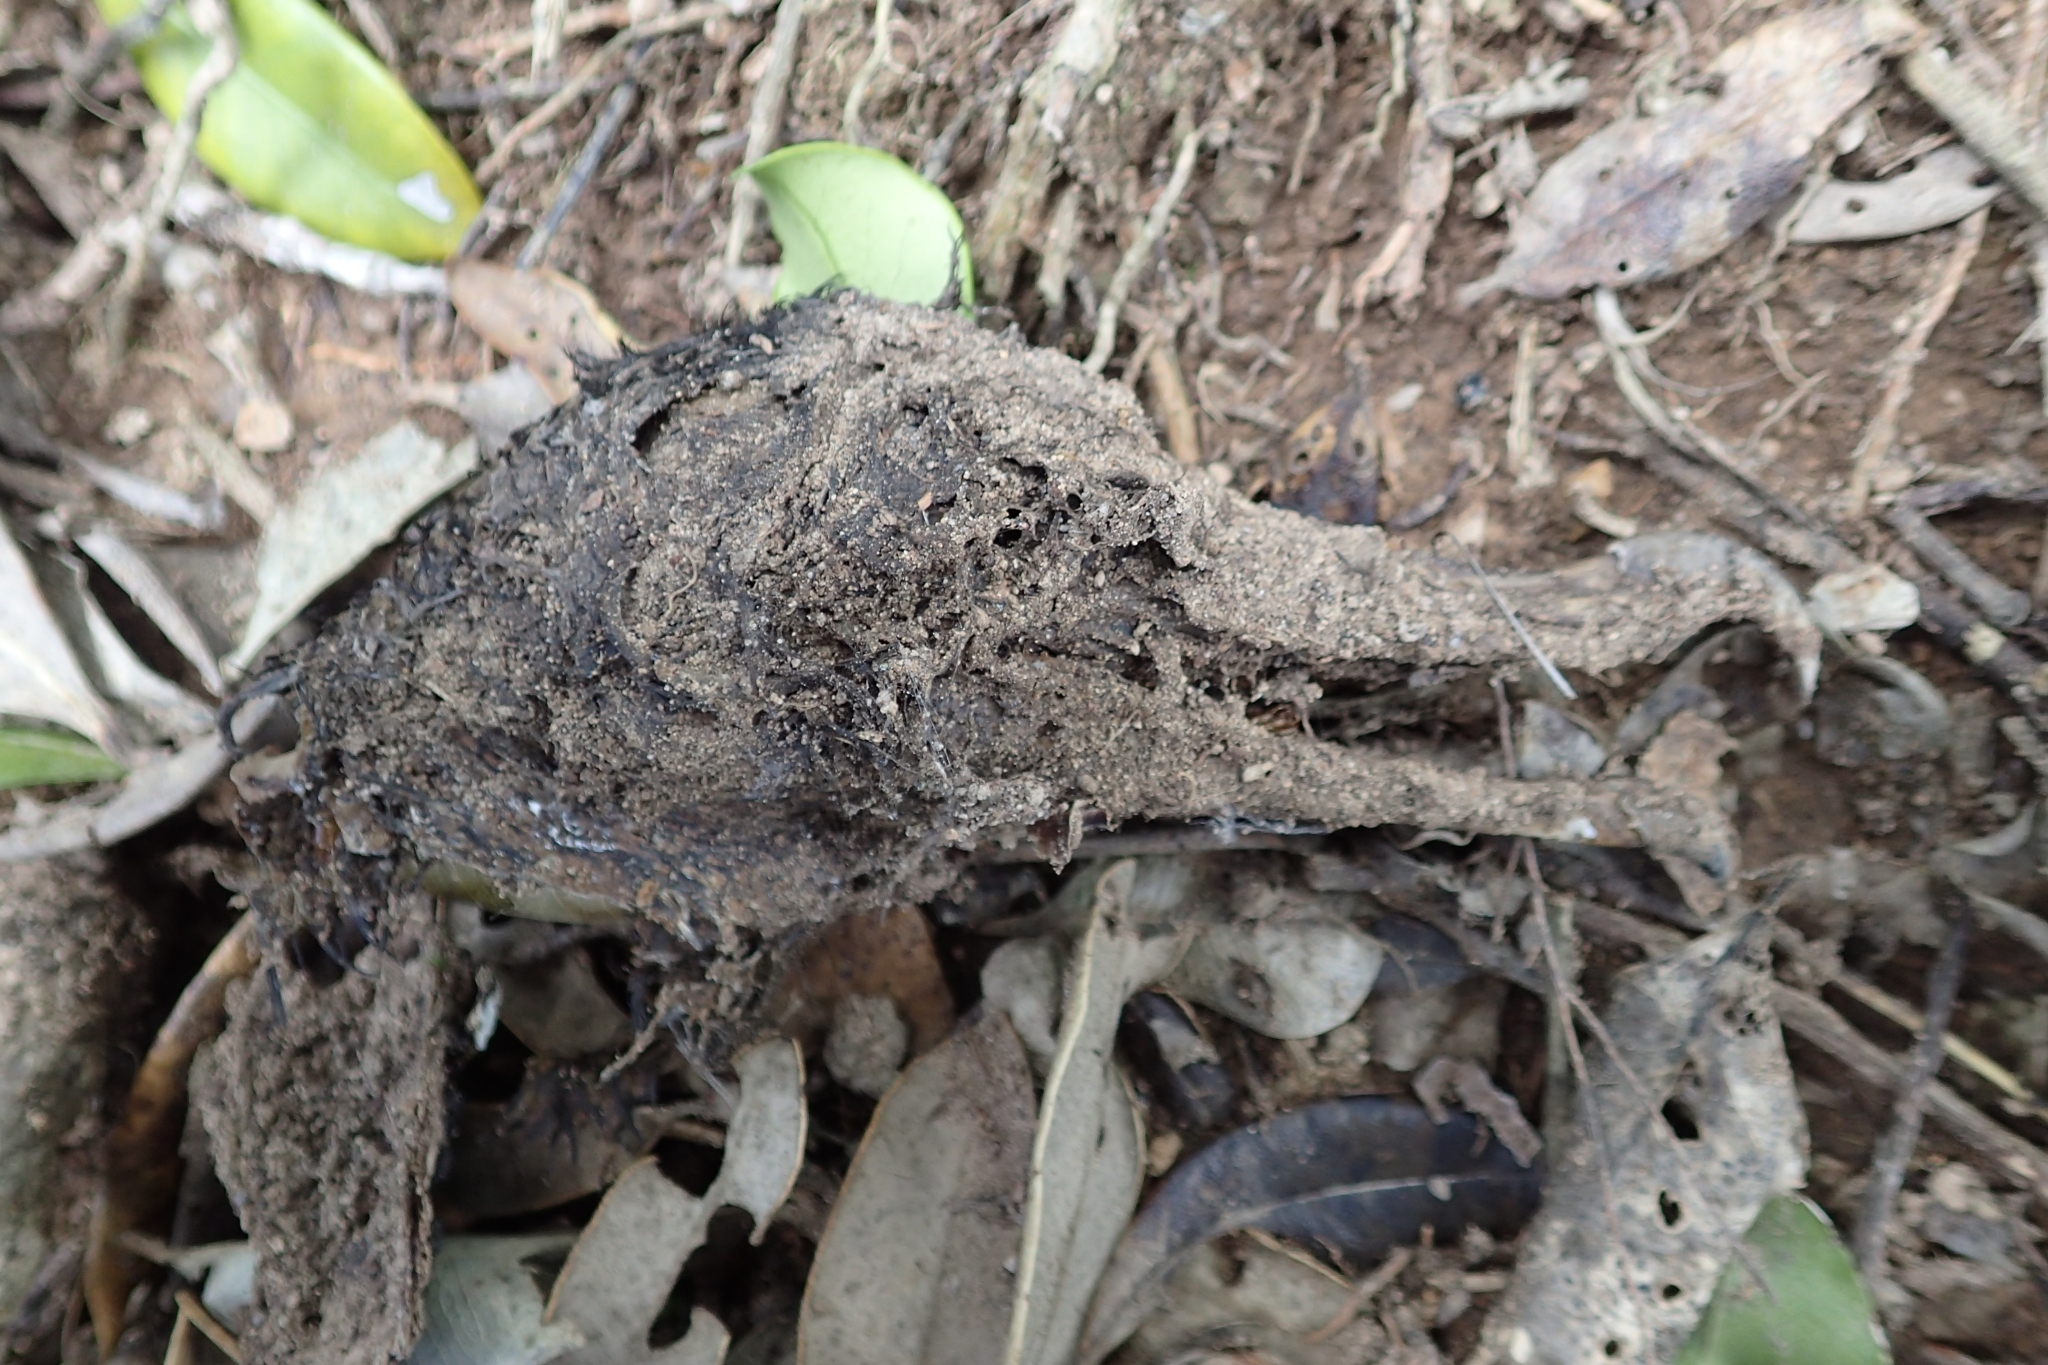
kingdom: Animalia
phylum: Chordata
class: Aves
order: Procellariiformes
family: Procellariidae
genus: Puffinus
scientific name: Puffinus carneipes
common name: Flesh-footed shearwater
